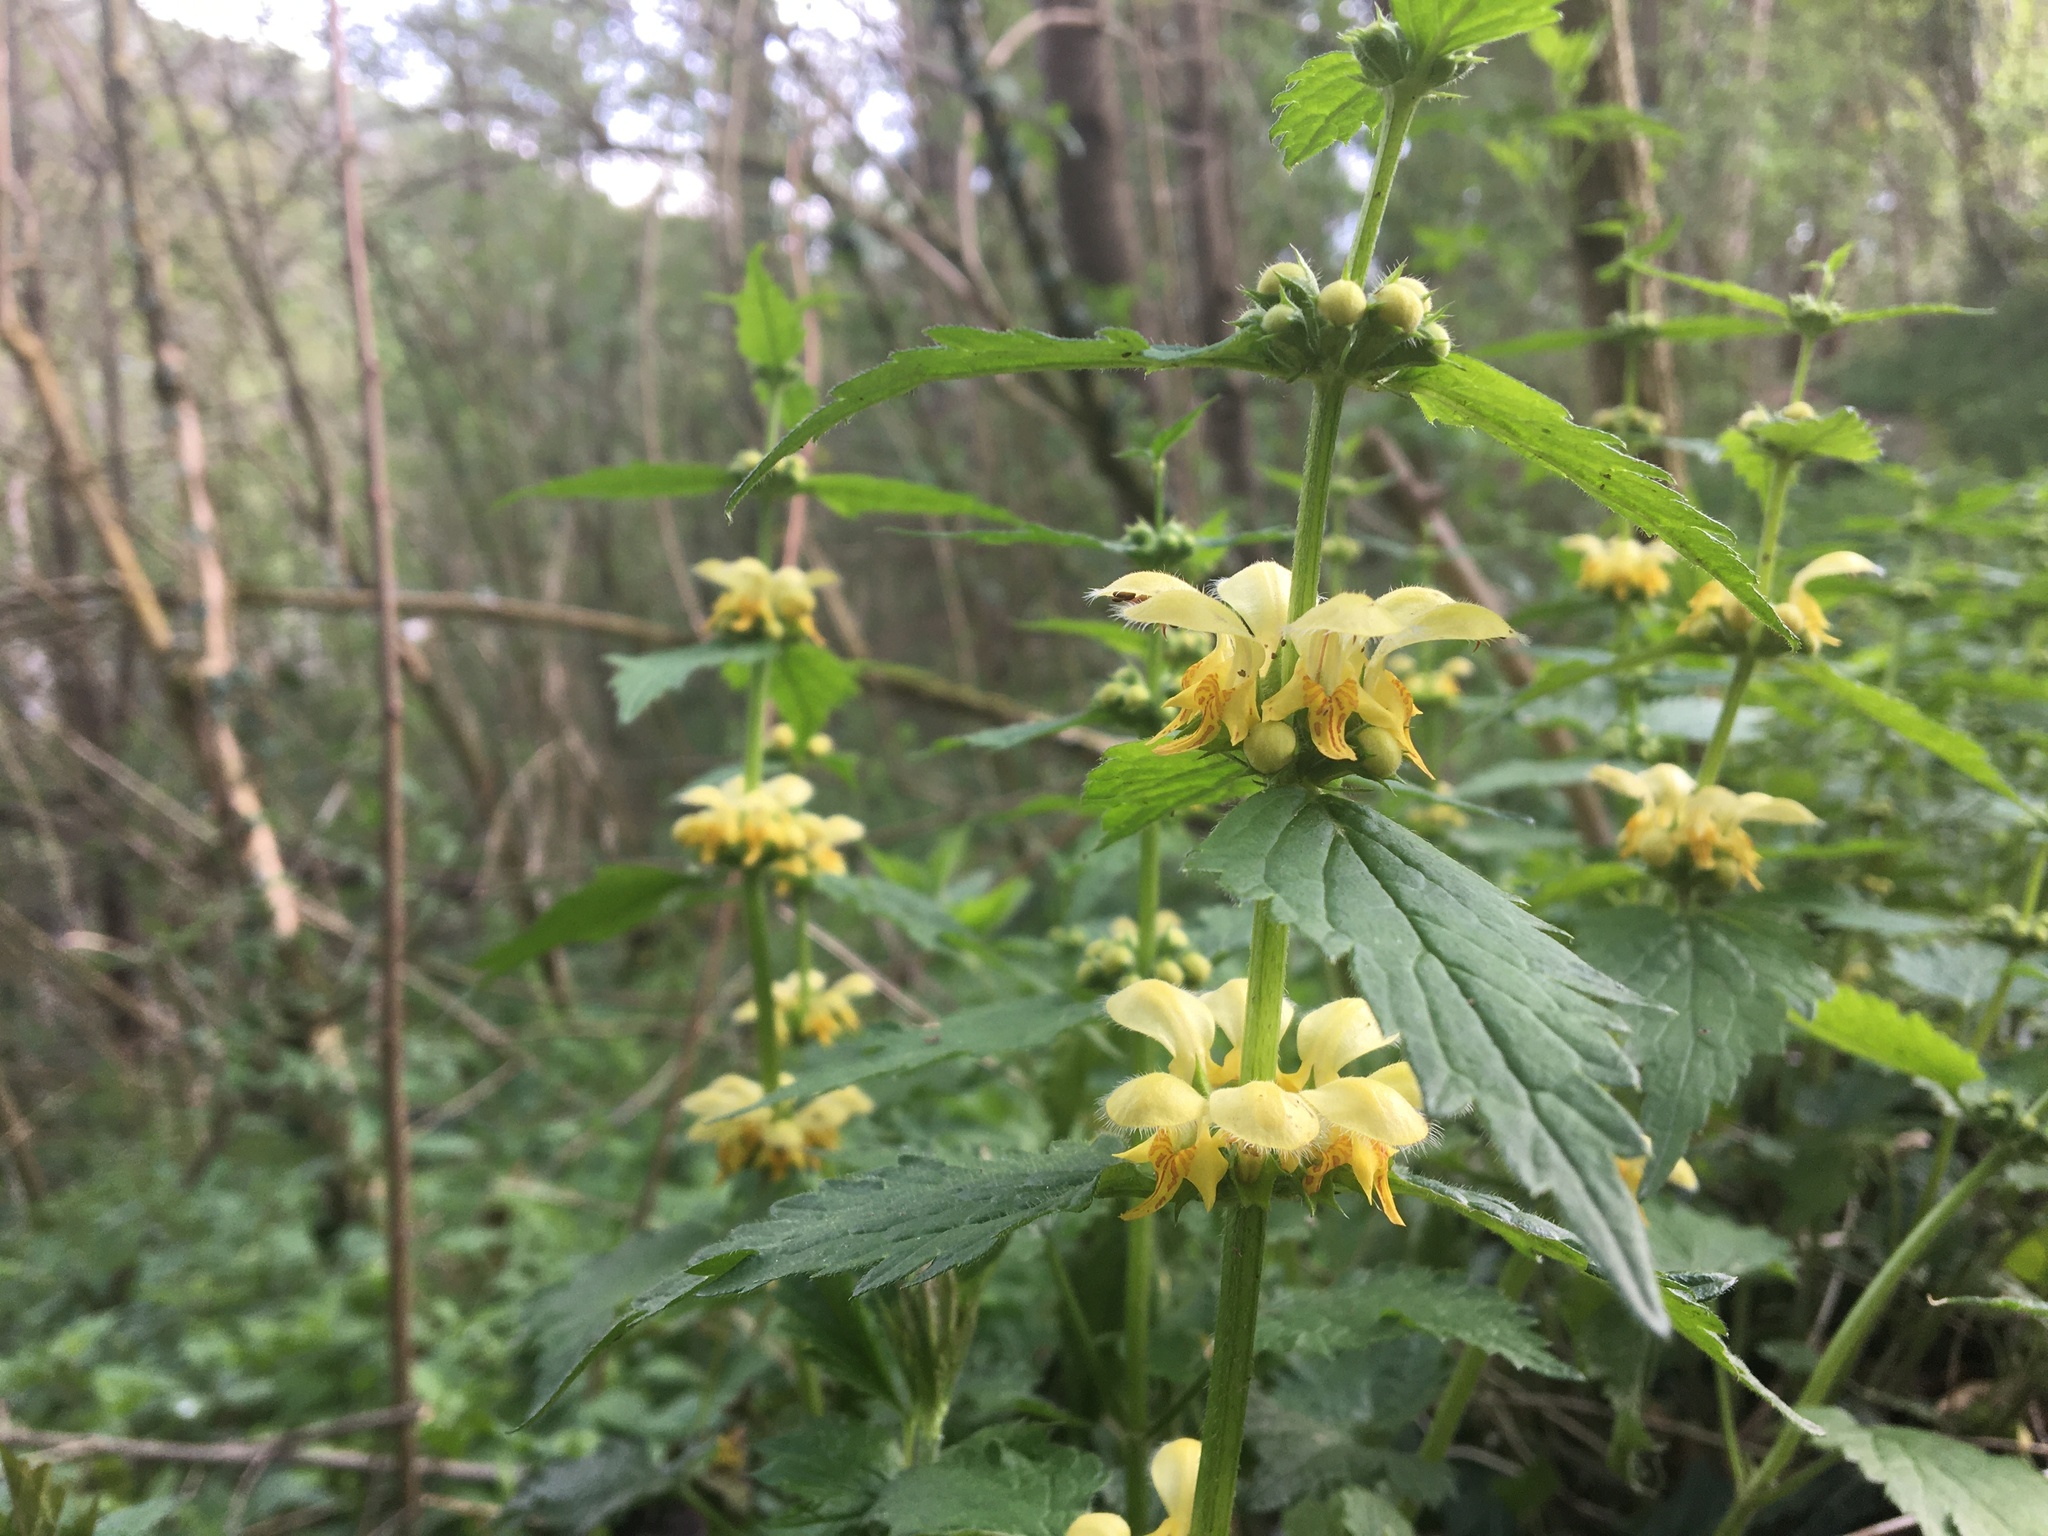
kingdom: Plantae
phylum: Tracheophyta
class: Magnoliopsida
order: Lamiales
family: Lamiaceae
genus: Lamium
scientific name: Lamium galeobdolon
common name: Yellow archangel
